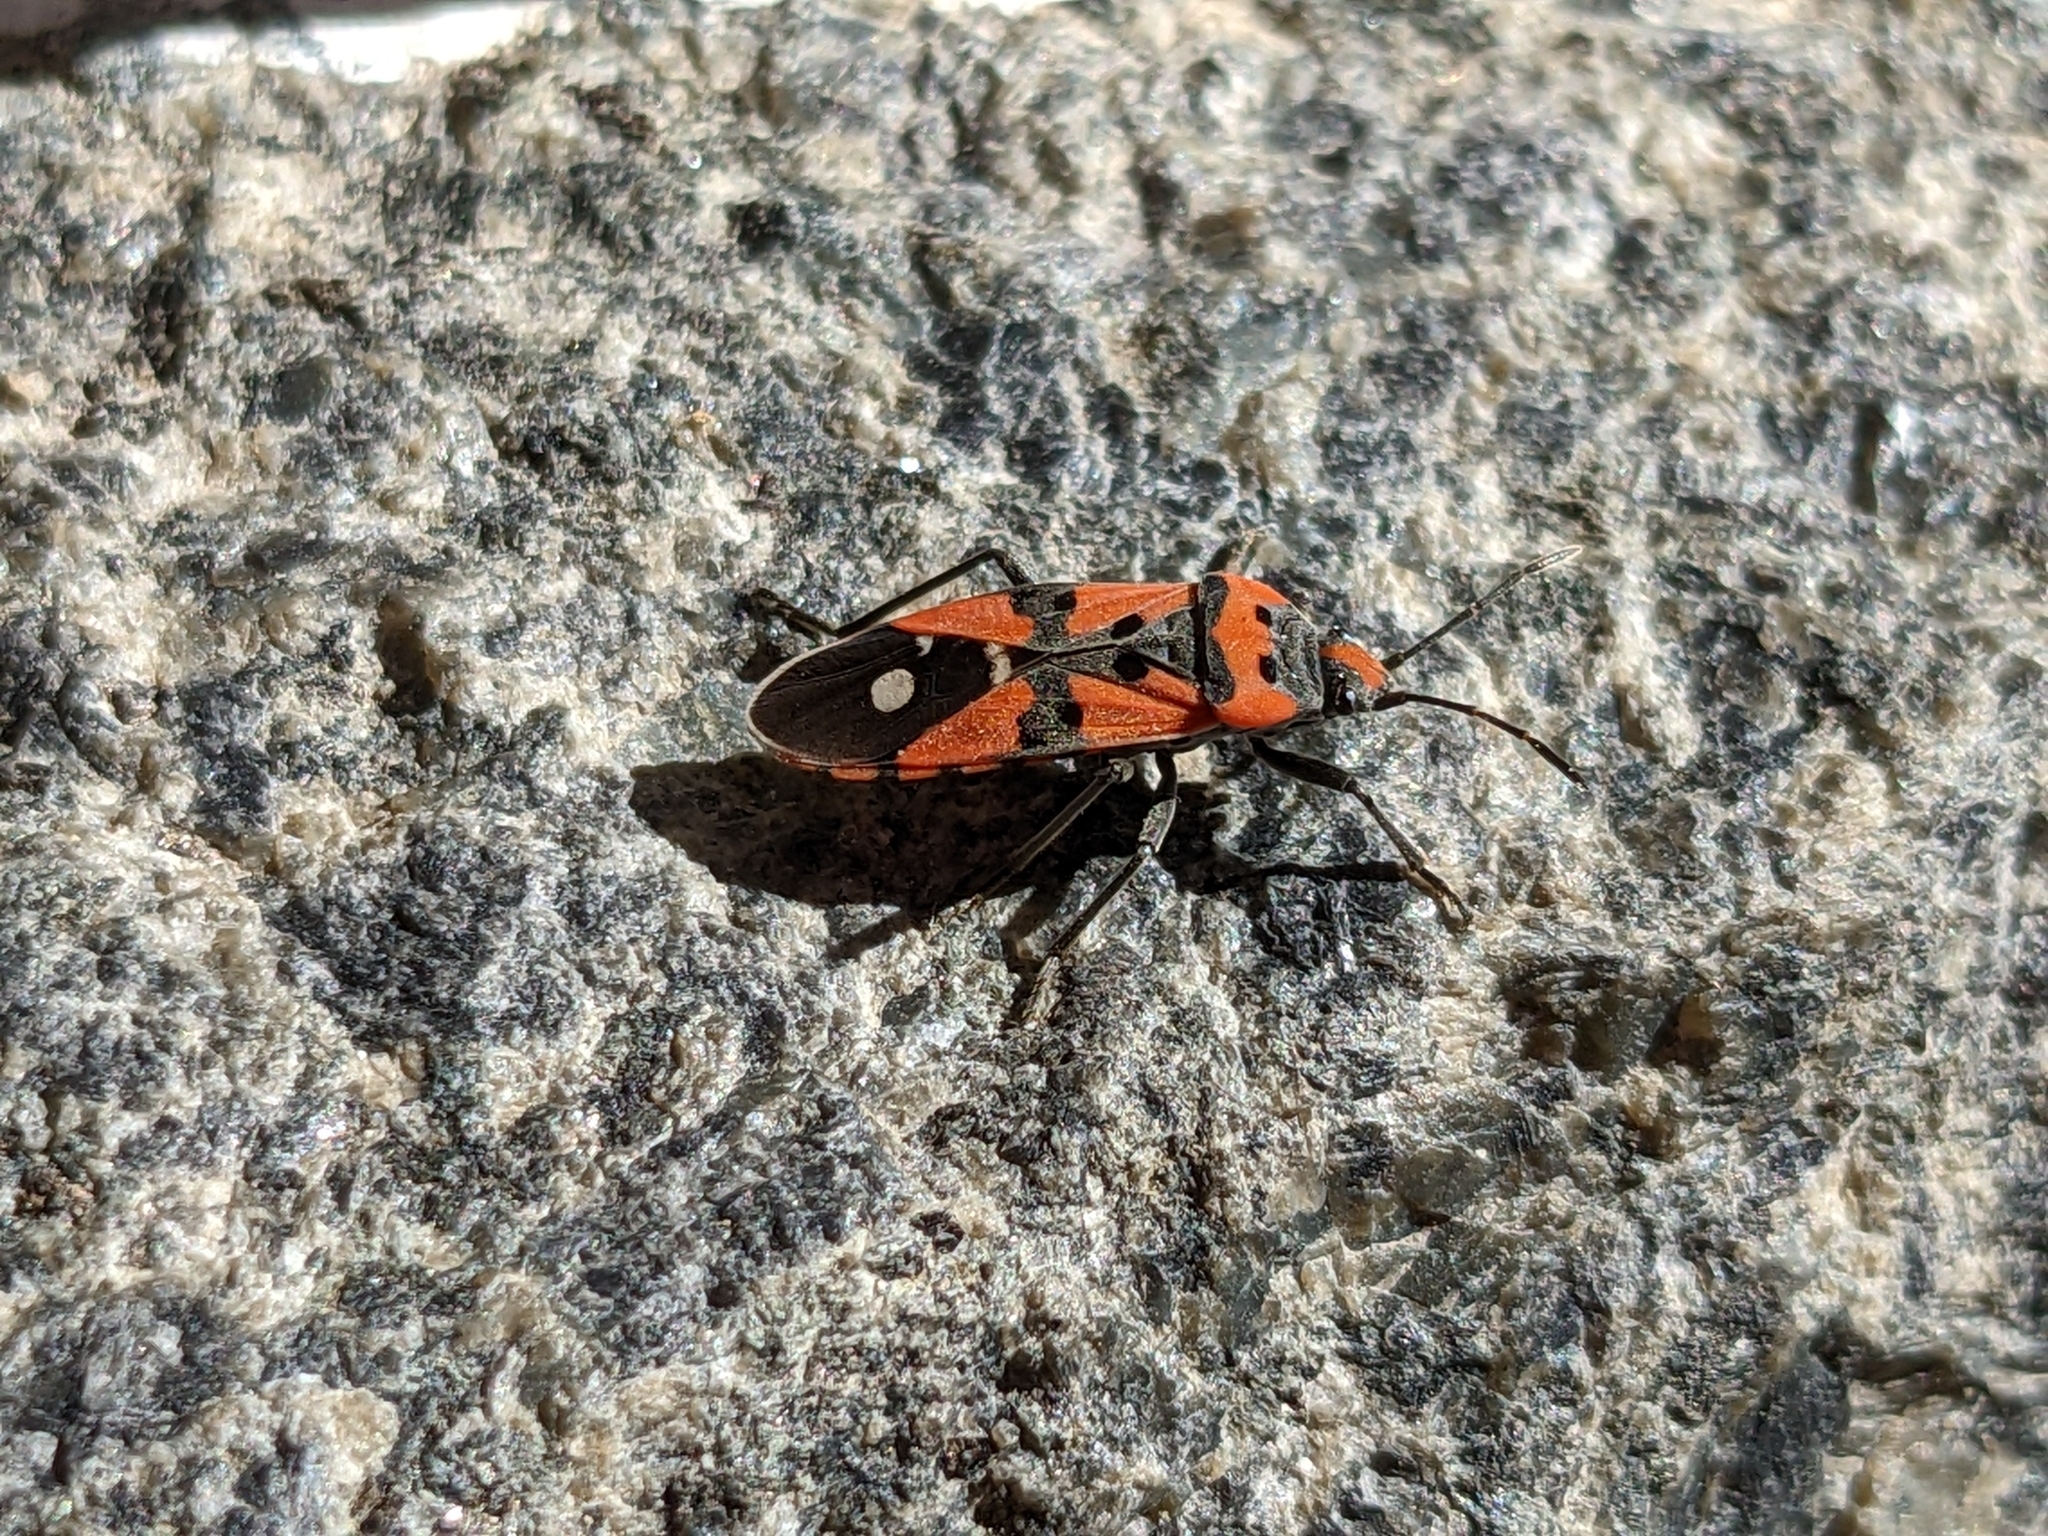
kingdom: Animalia
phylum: Arthropoda
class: Insecta
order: Hemiptera
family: Lygaeidae
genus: Lygaeus
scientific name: Lygaeus equestris
